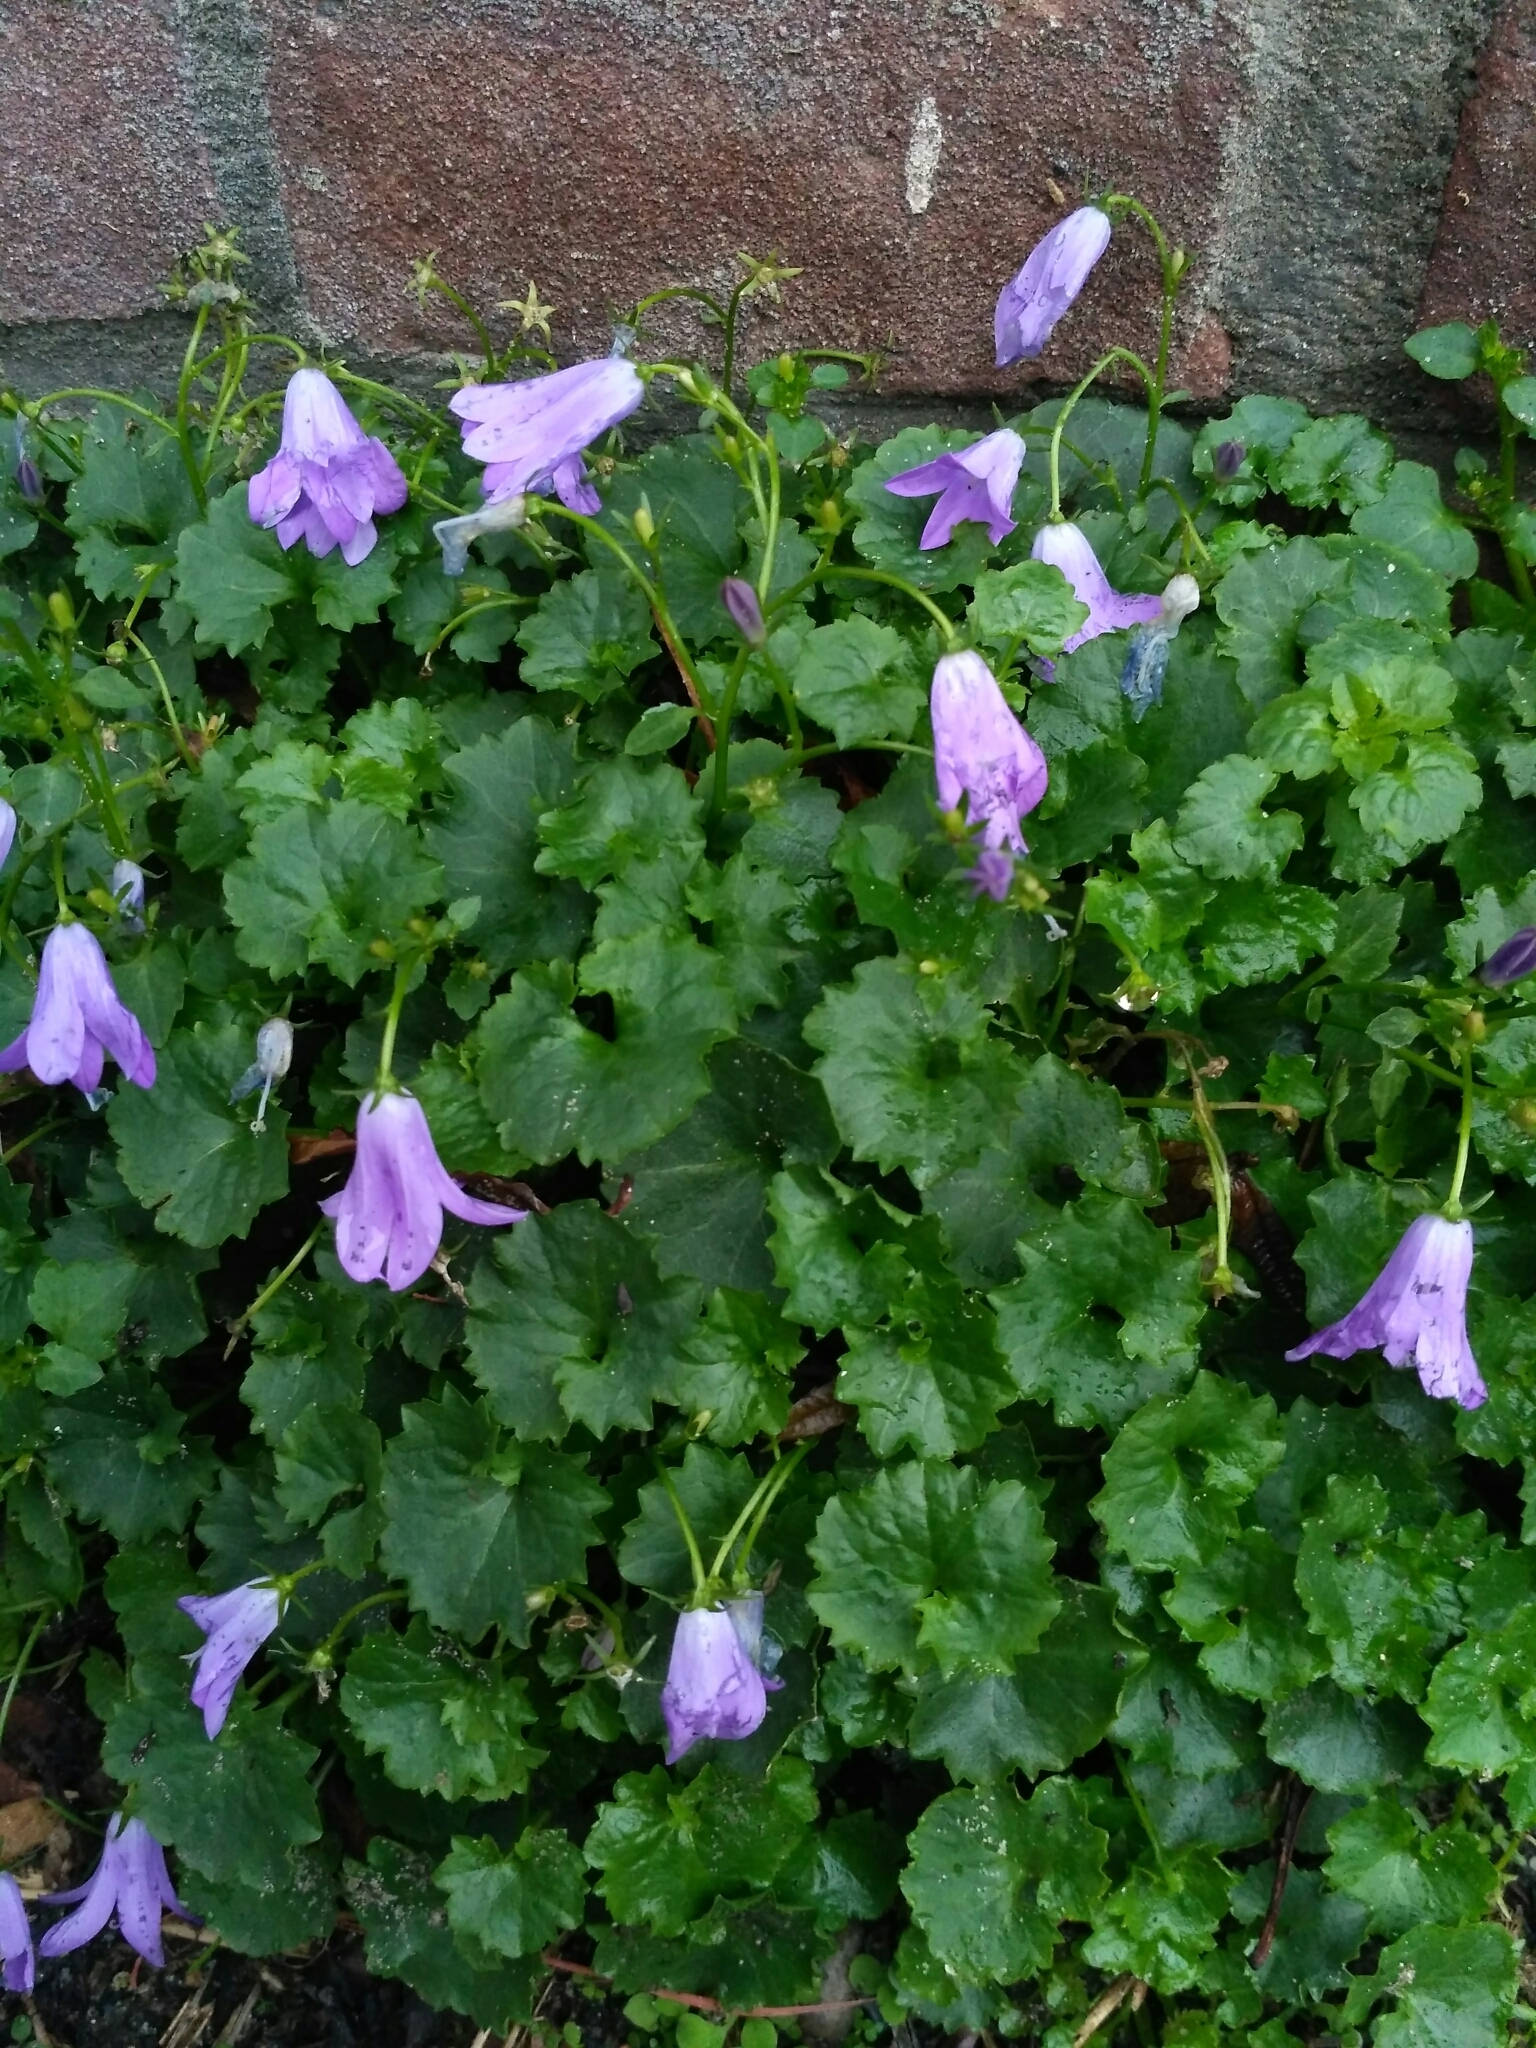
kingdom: Plantae
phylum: Tracheophyta
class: Magnoliopsida
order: Asterales
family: Campanulaceae
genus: Campanula
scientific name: Campanula poscharskyana
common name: Trailing bellflower
